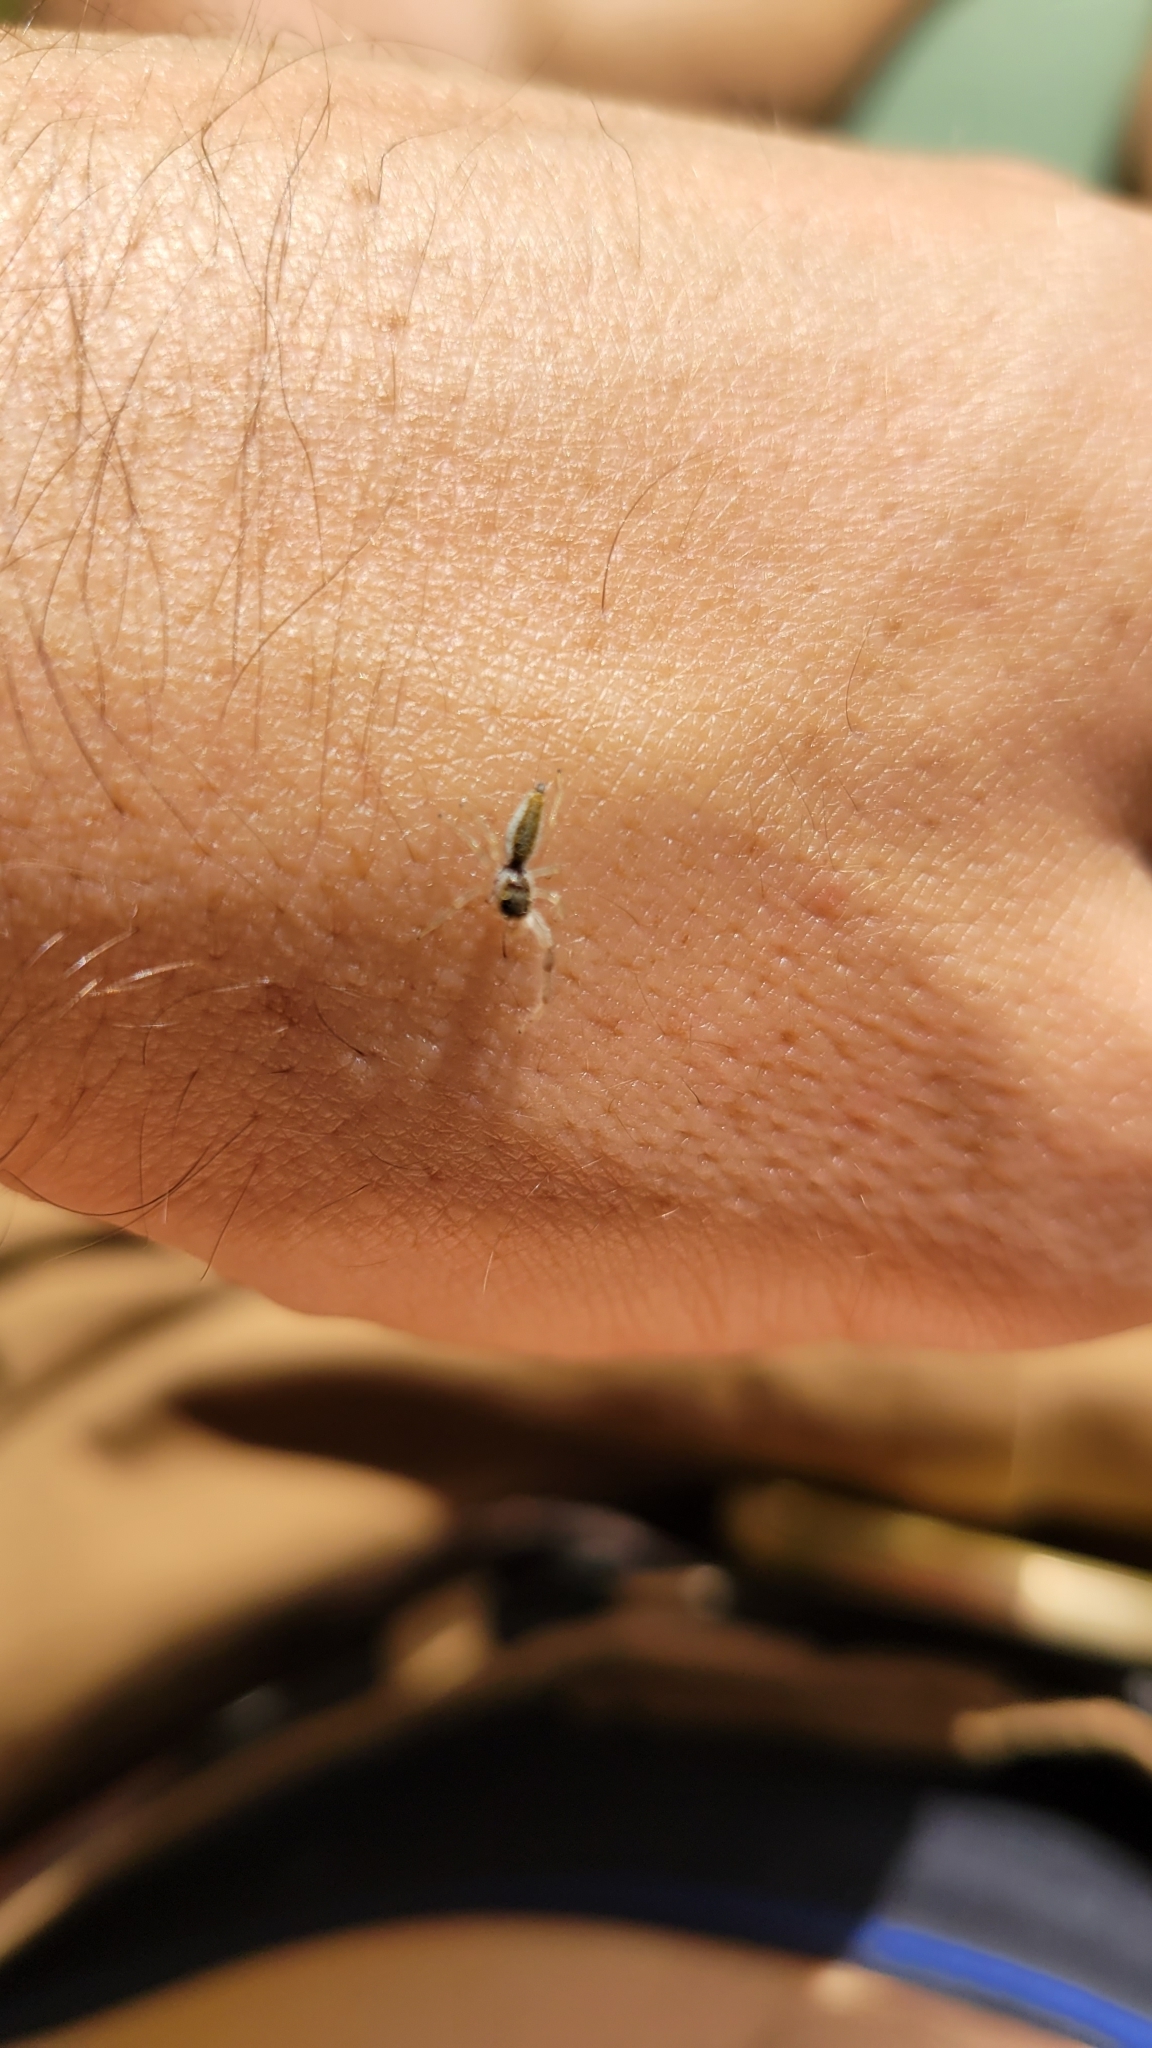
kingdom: Animalia
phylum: Arthropoda
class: Arachnida
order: Araneae
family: Salticidae
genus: Hentzia
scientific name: Hentzia mitrata
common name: White-jawed jumping spider
